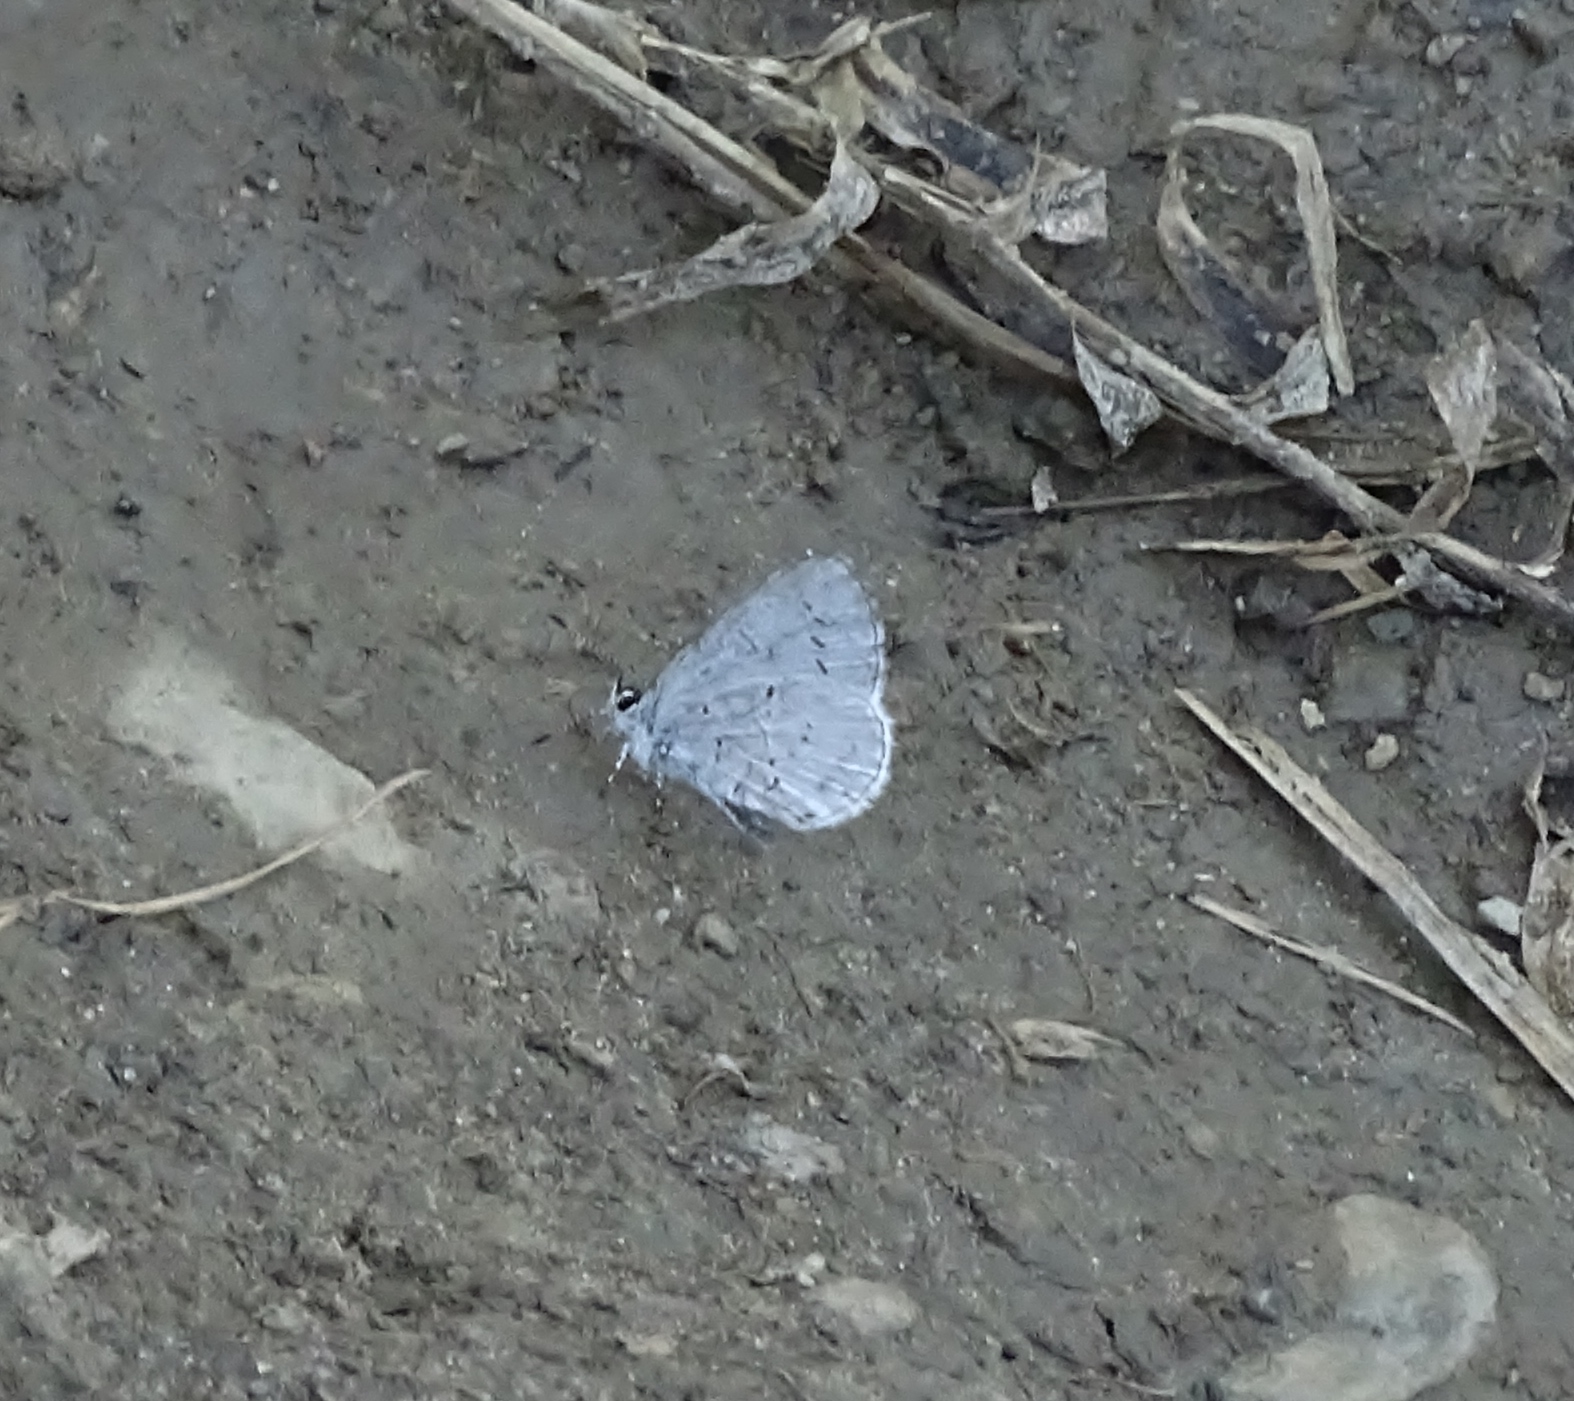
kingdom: Animalia
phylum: Arthropoda
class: Insecta
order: Lepidoptera
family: Lycaenidae
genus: Cyaniris
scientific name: Cyaniris neglecta
